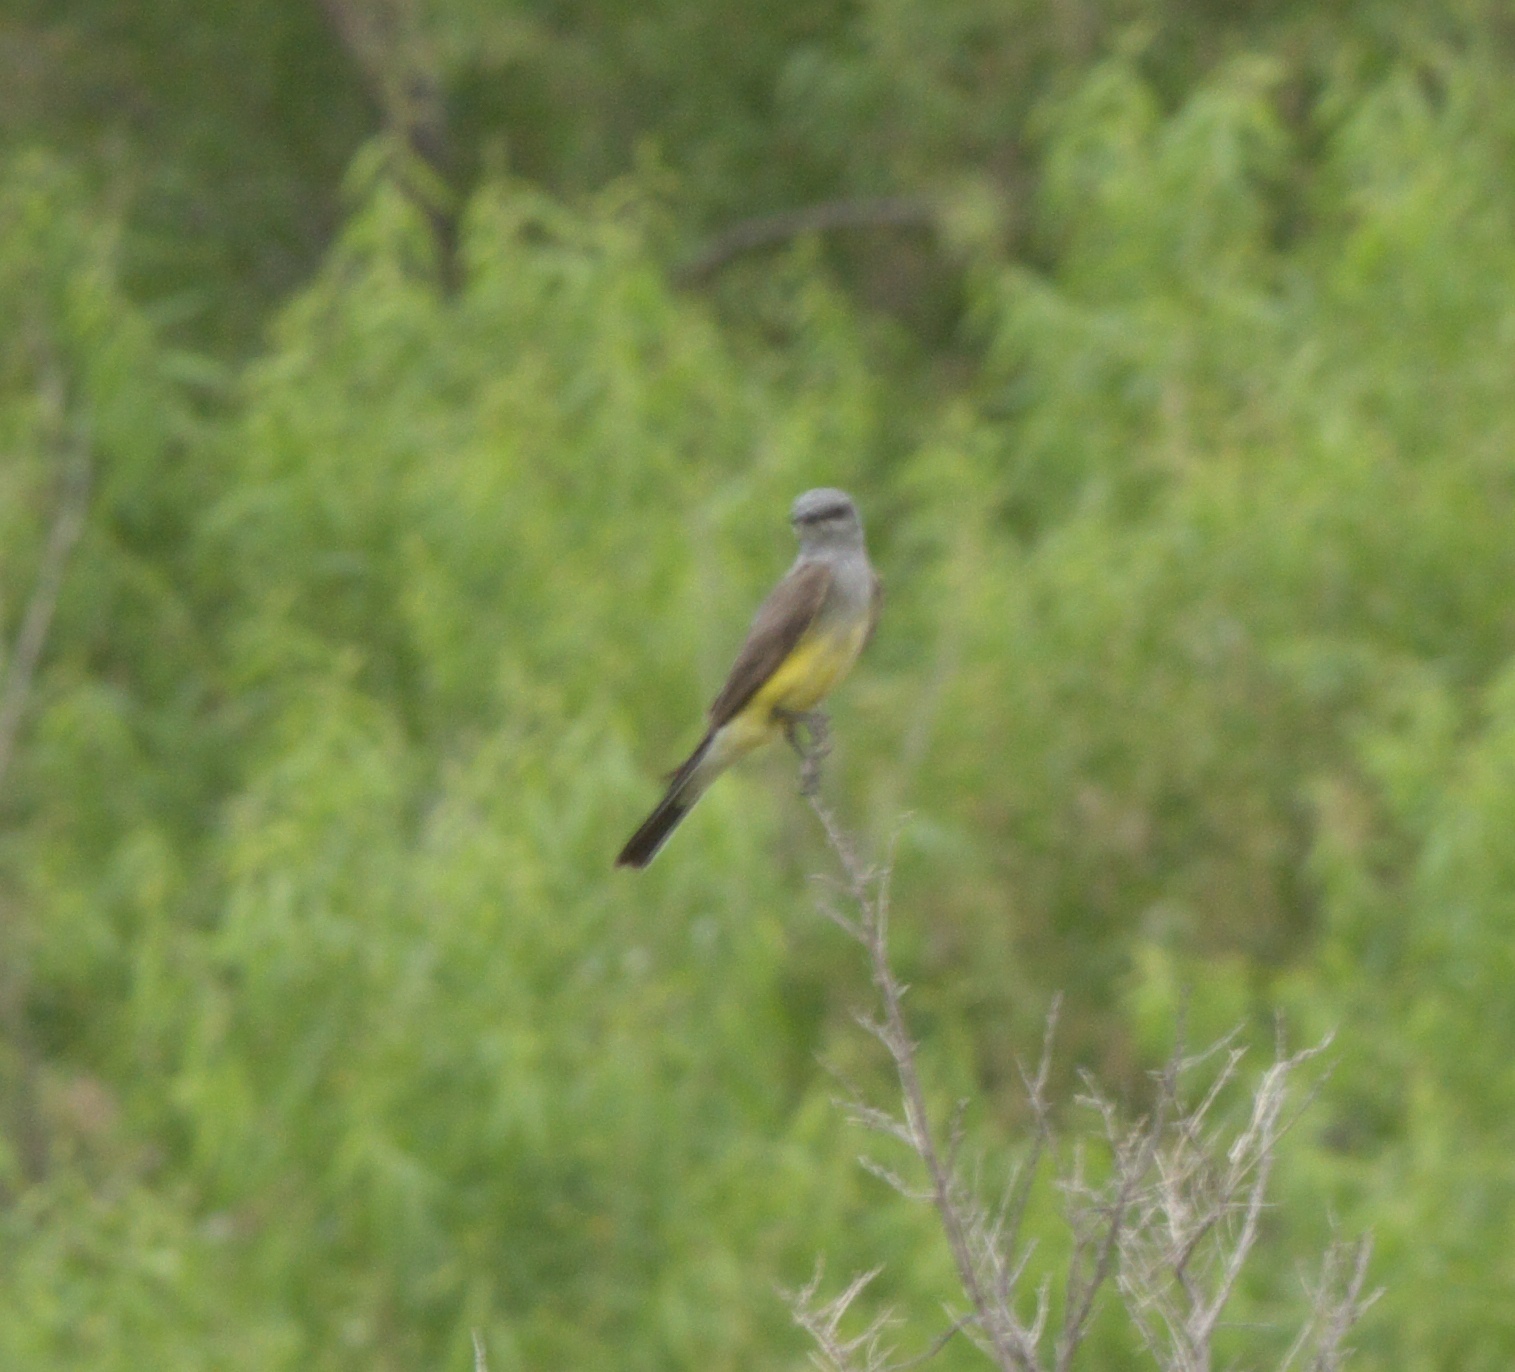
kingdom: Animalia
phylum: Chordata
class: Aves
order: Passeriformes
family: Tyrannidae
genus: Tyrannus
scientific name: Tyrannus verticalis
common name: Western kingbird
